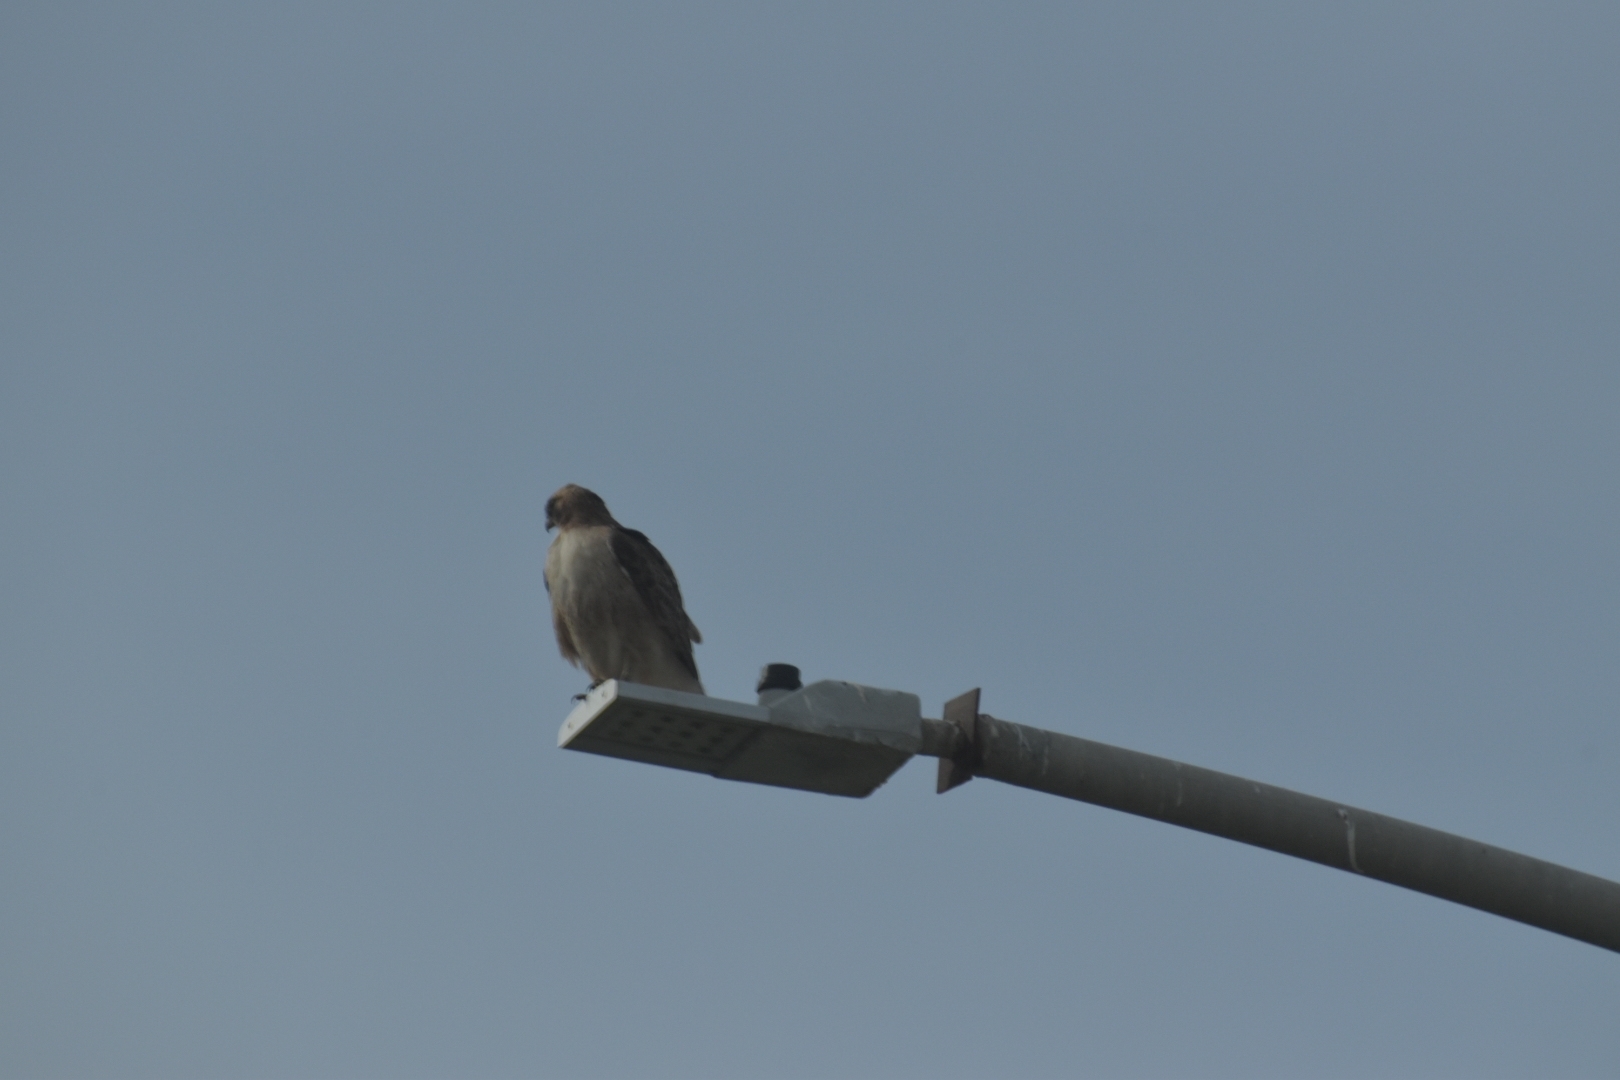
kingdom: Animalia
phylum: Chordata
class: Aves
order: Accipitriformes
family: Accipitridae
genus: Buteo
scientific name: Buteo jamaicensis
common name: Red-tailed hawk
